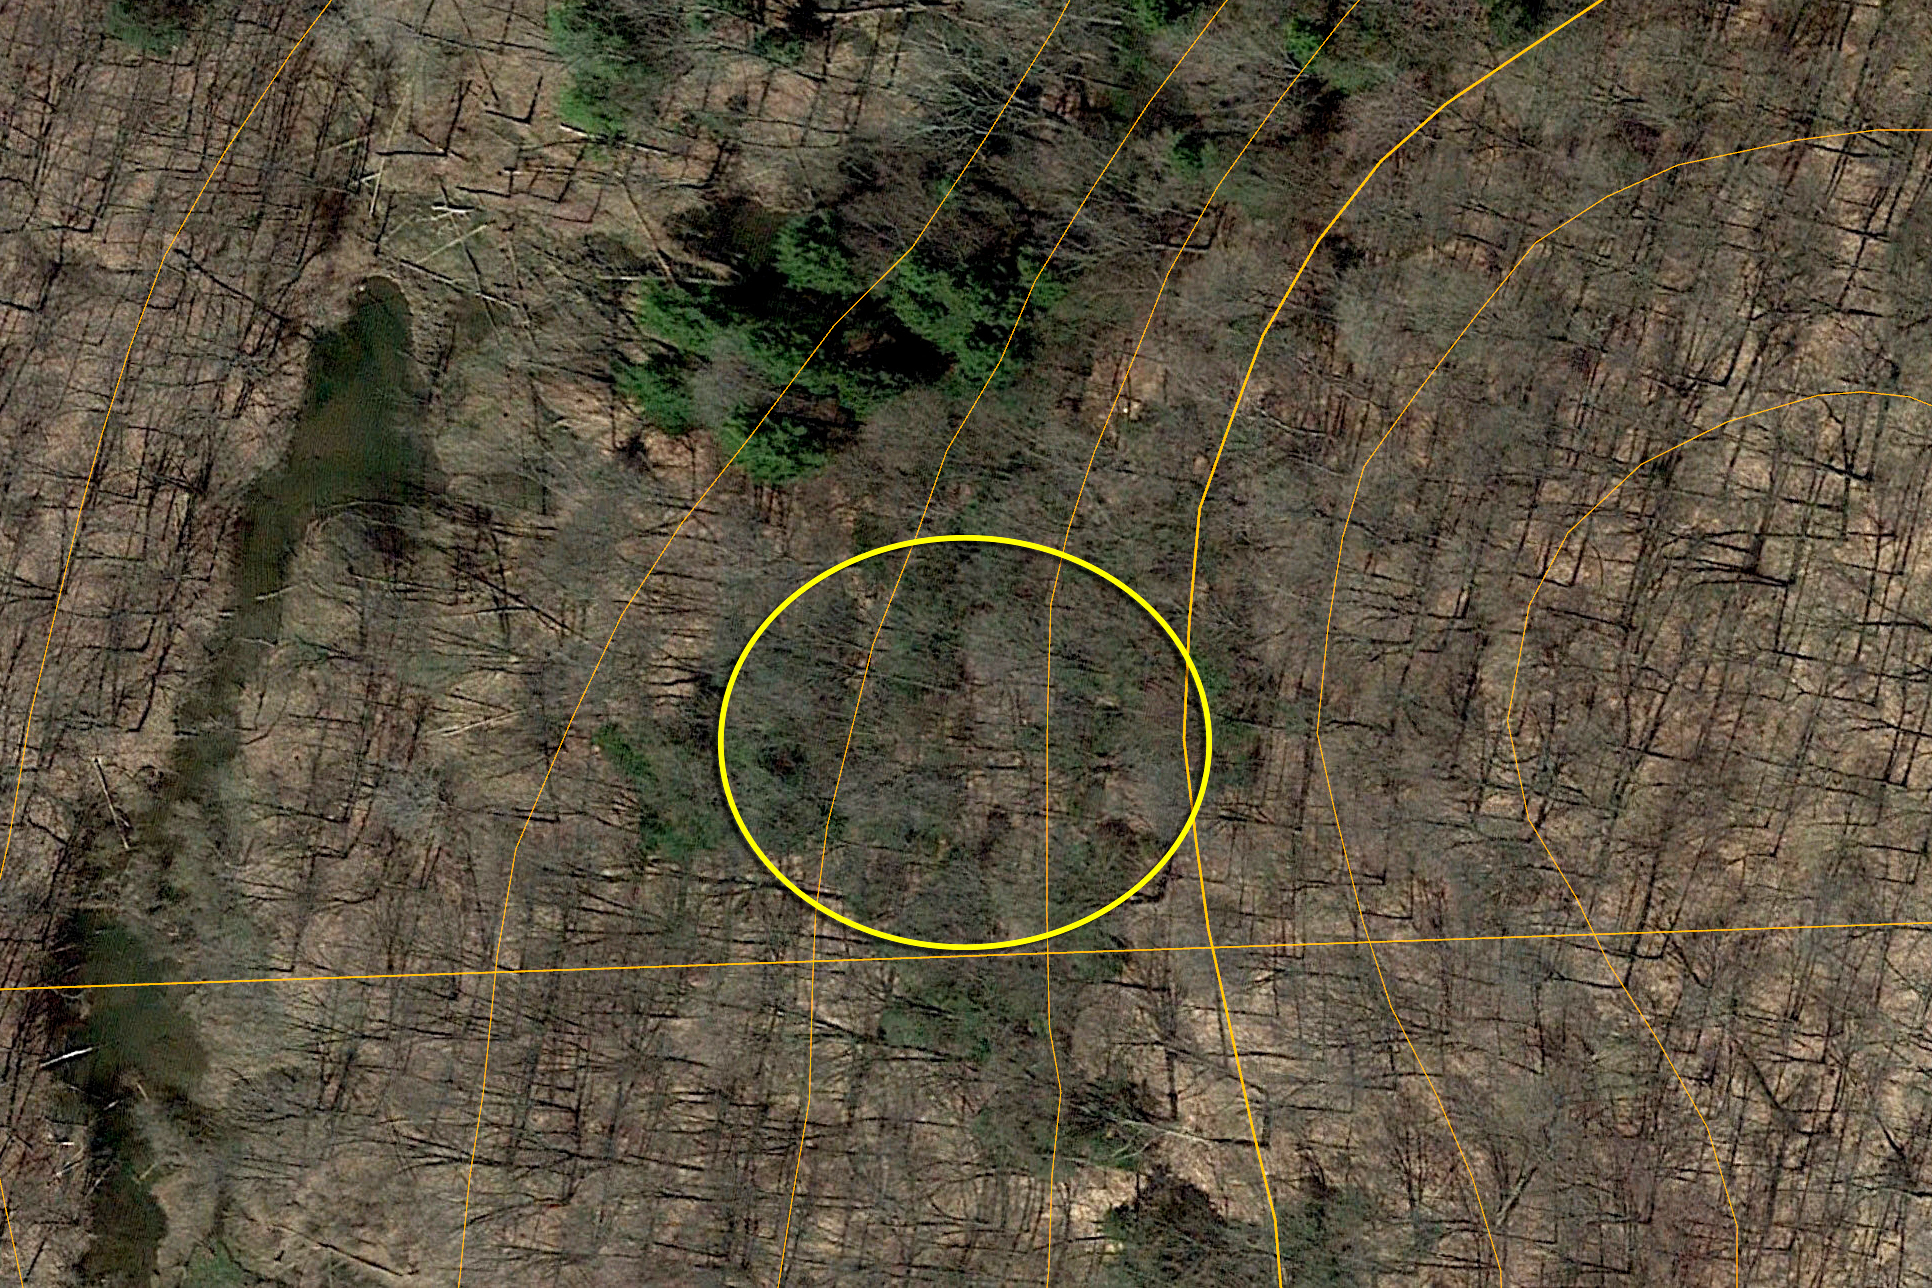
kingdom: Plantae
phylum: Tracheophyta
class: Pinopsida
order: Pinales
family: Pinaceae
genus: Tsuga
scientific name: Tsuga canadensis
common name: Eastern hemlock
